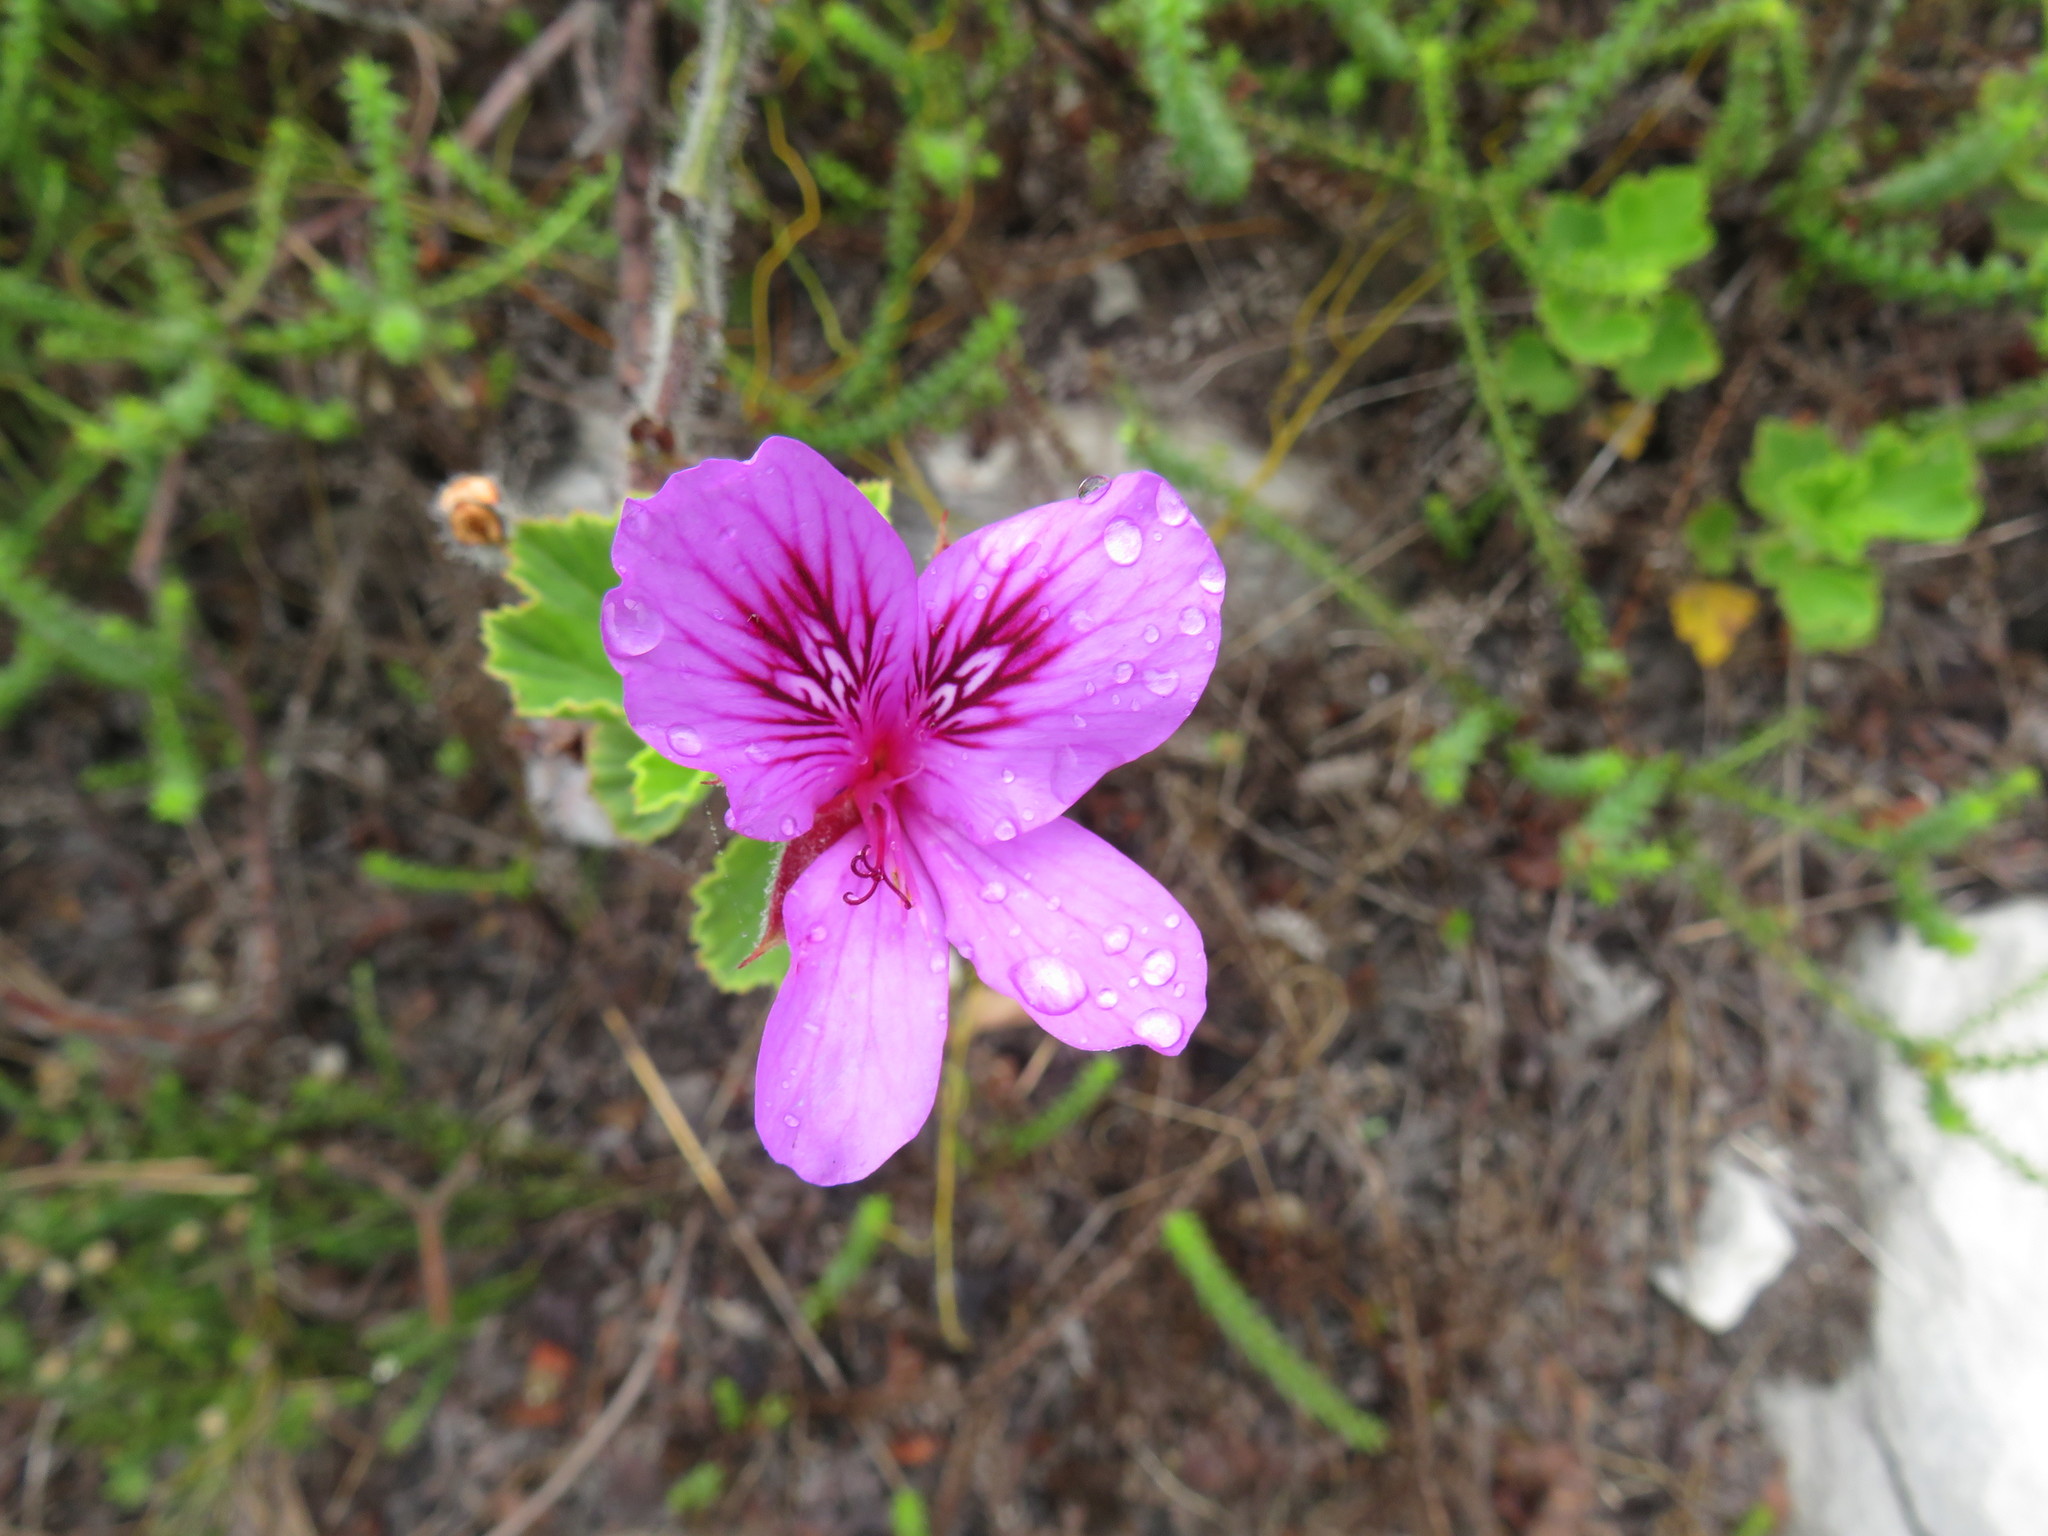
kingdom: Plantae
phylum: Tracheophyta
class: Magnoliopsida
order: Geraniales
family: Geraniaceae
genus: Pelargonium
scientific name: Pelargonium cucullatum
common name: Tree pelargonium
